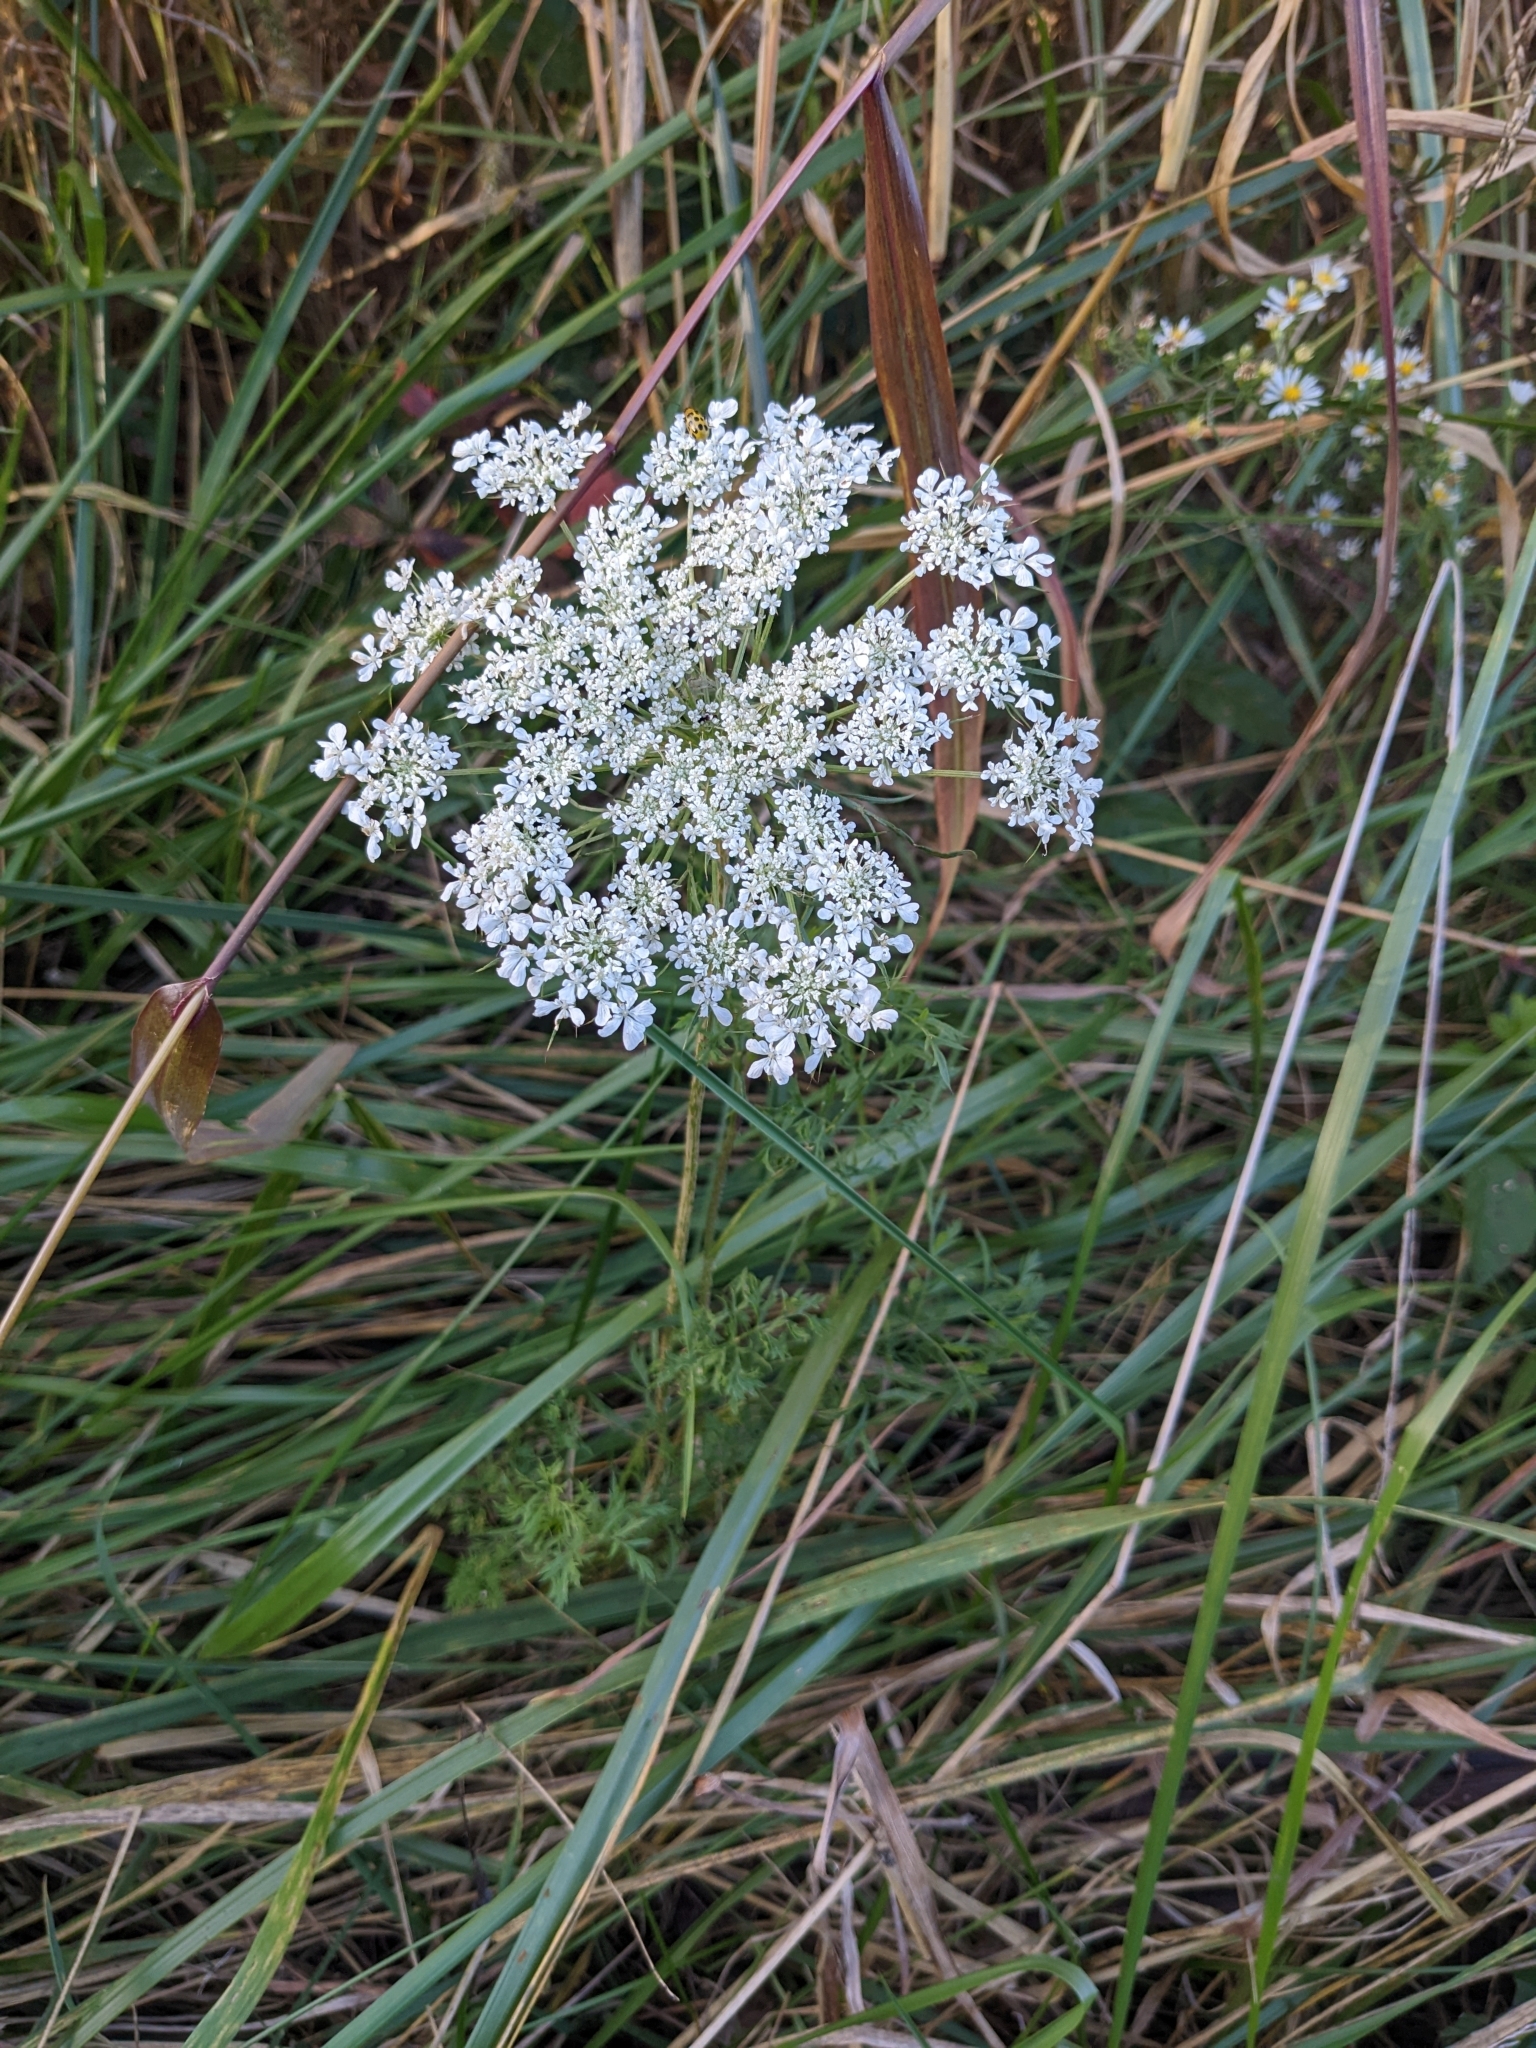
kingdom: Plantae
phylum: Tracheophyta
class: Magnoliopsida
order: Apiales
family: Apiaceae
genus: Daucus
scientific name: Daucus carota
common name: Wild carrot
